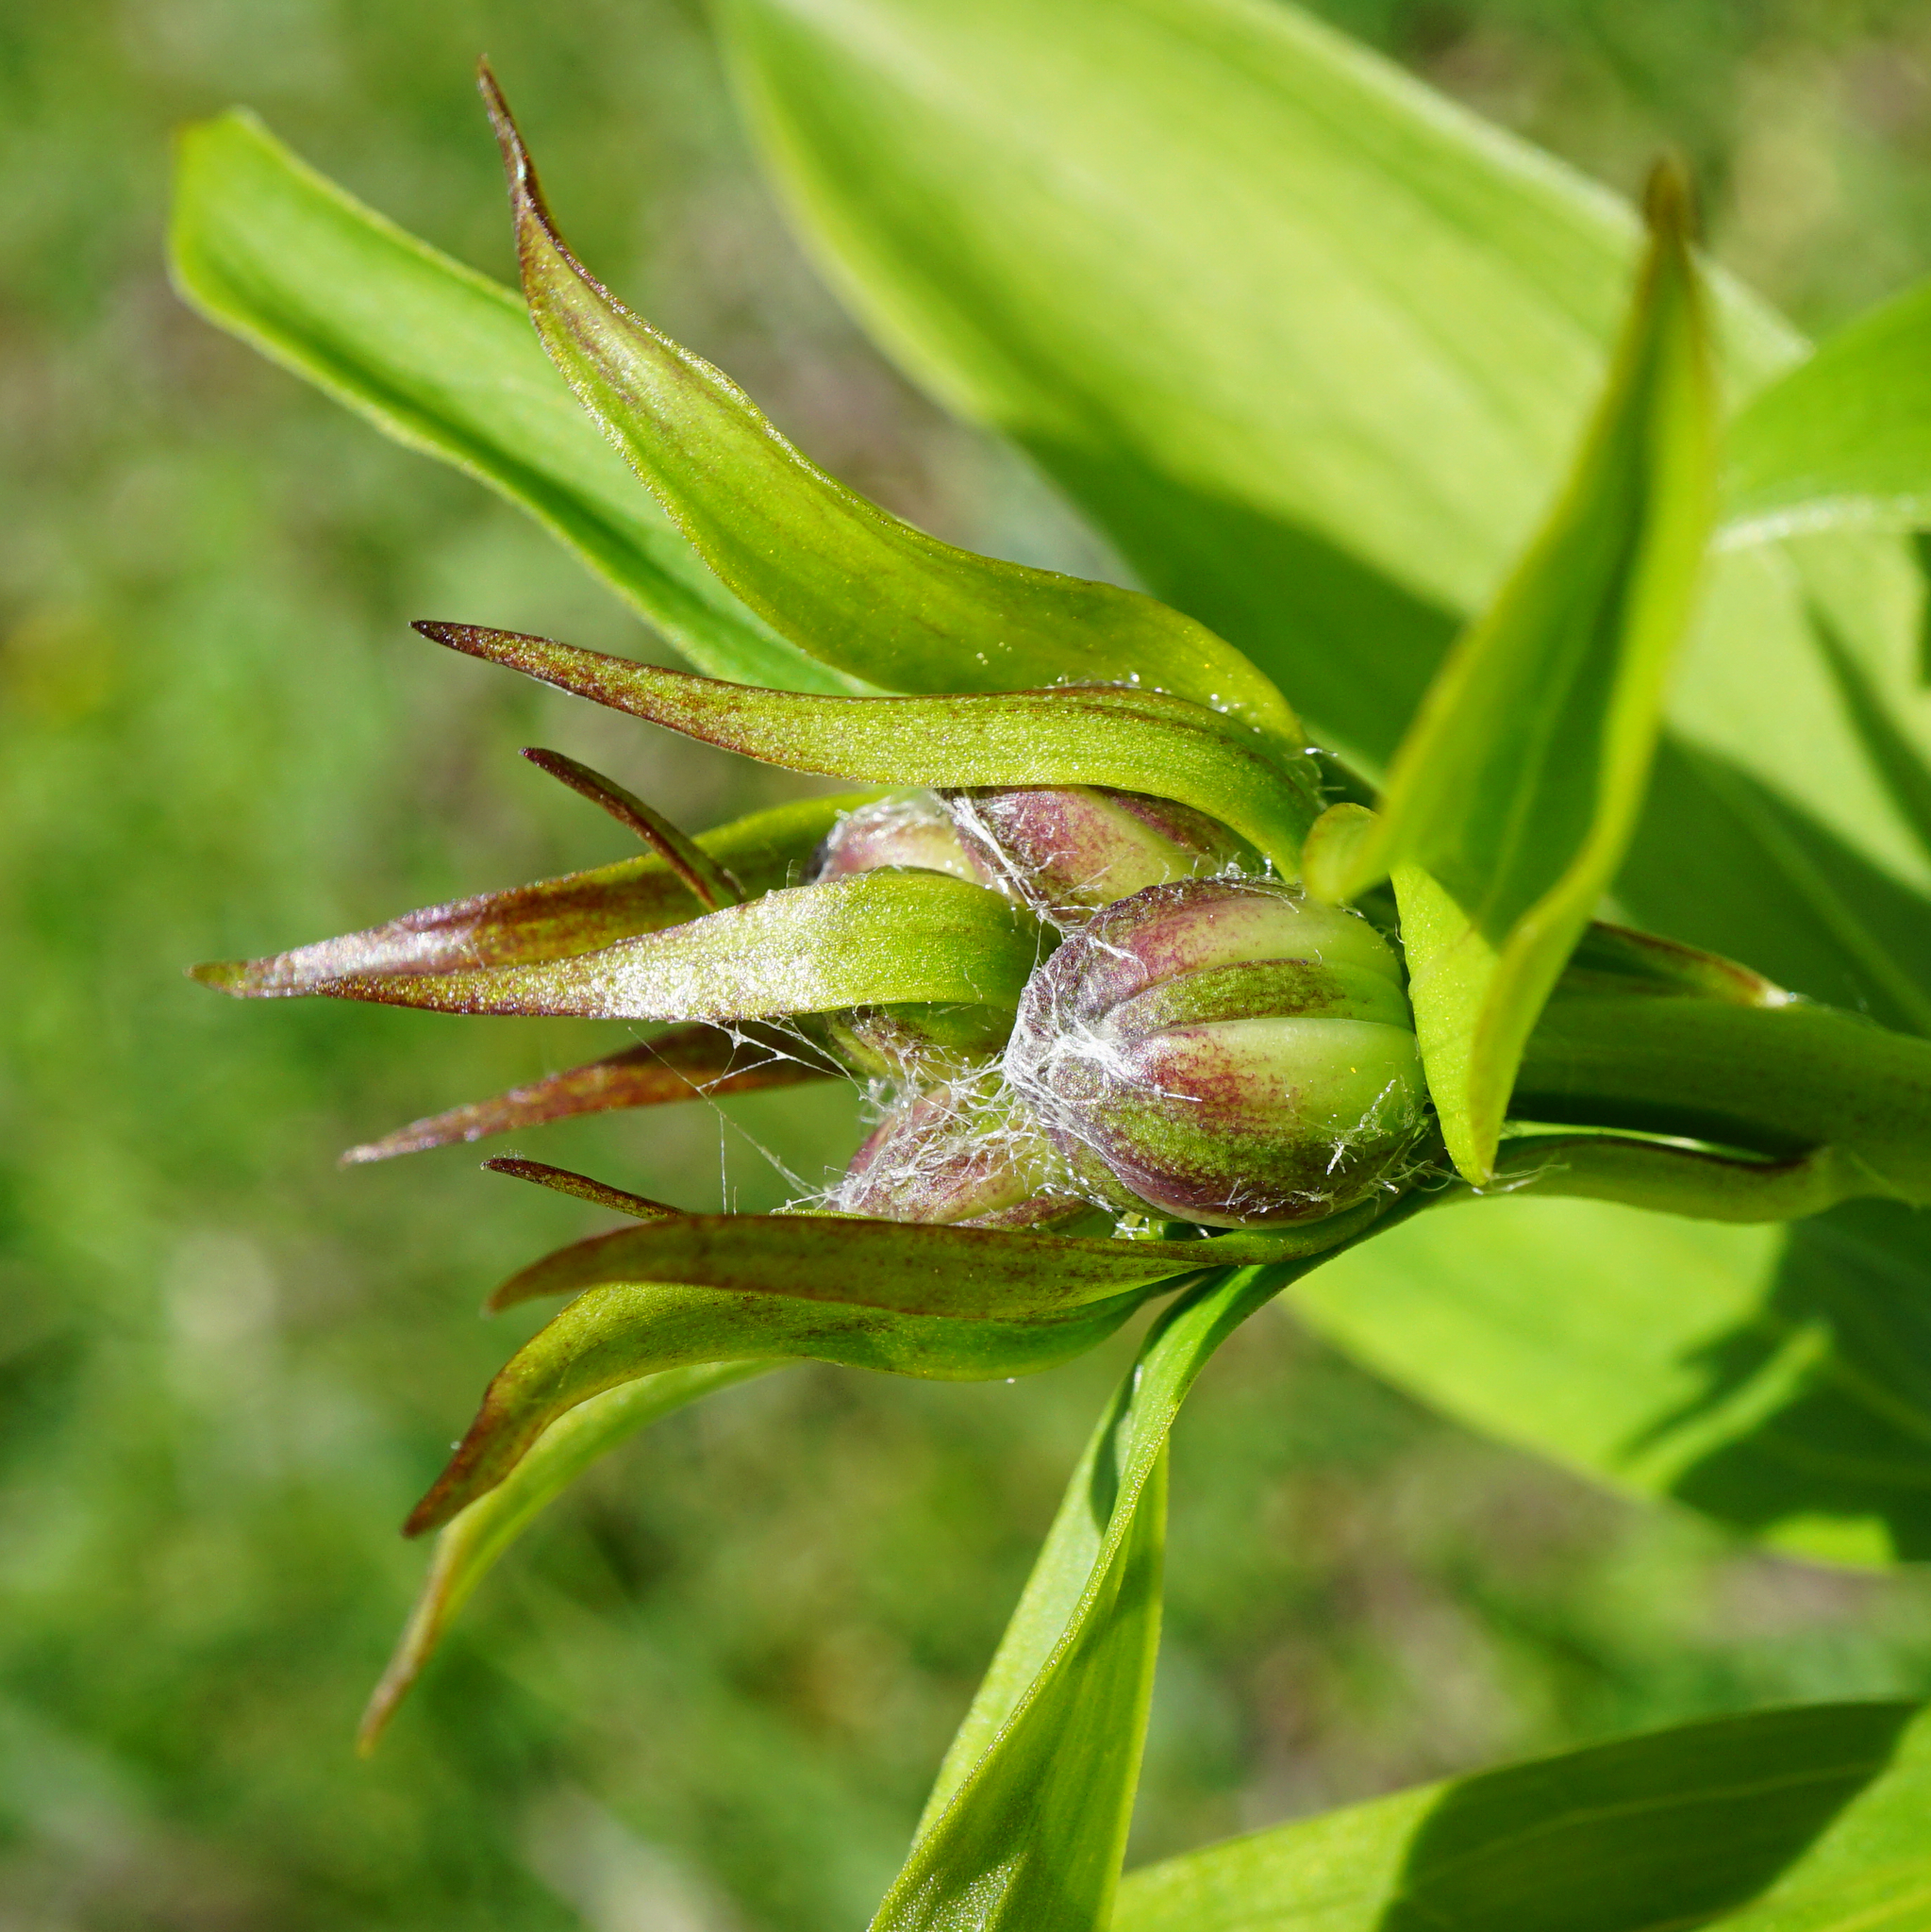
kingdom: Plantae
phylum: Tracheophyta
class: Liliopsida
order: Liliales
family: Liliaceae
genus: Lilium
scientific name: Lilium martagon
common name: Martagon lily
